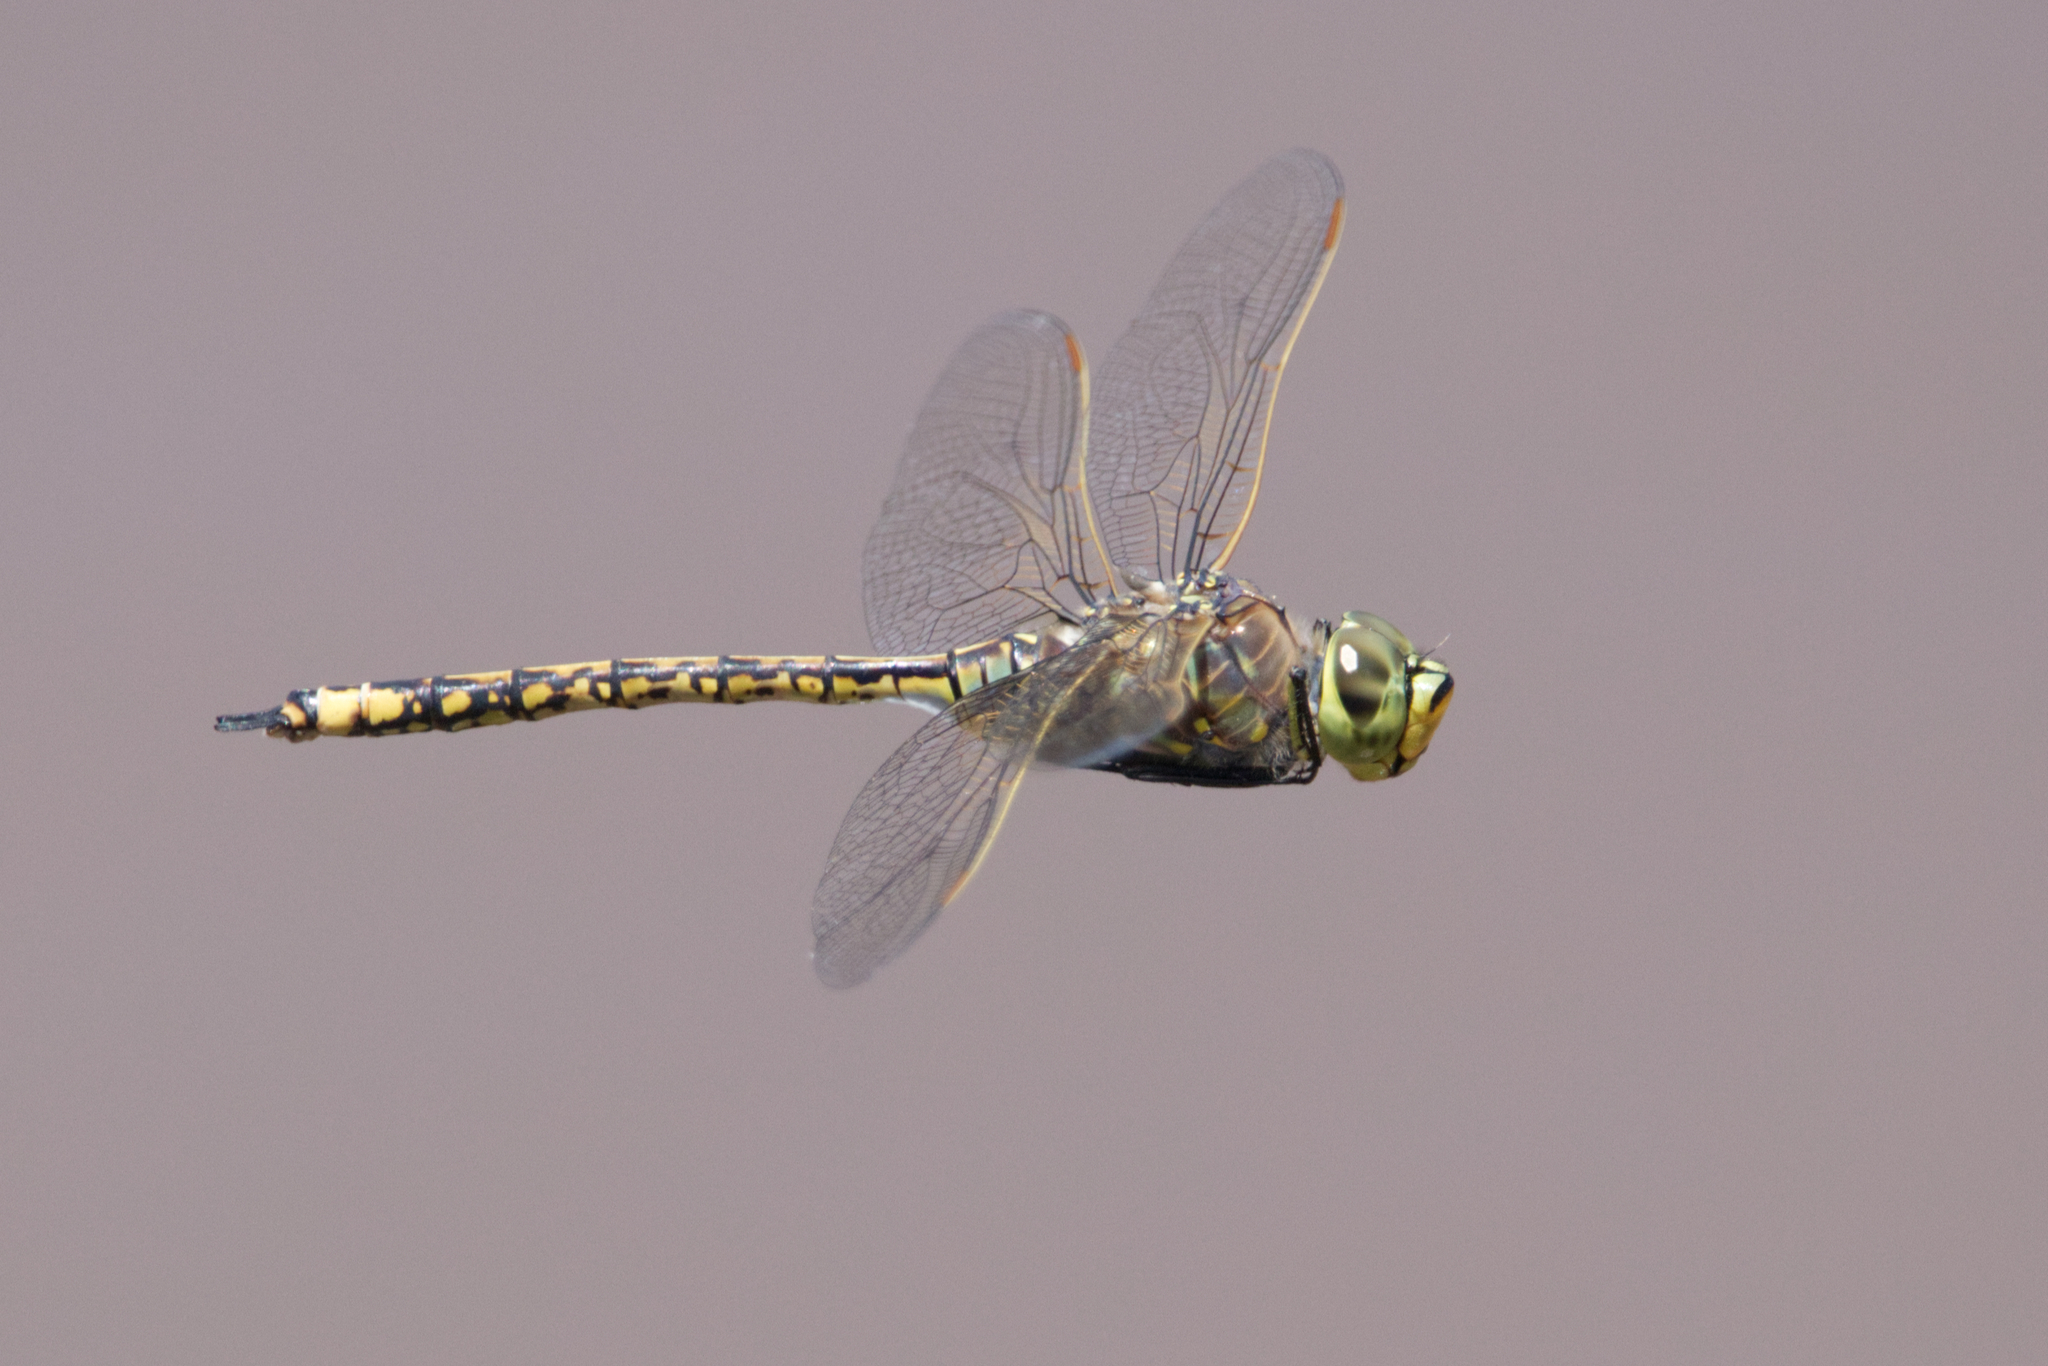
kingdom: Animalia
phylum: Arthropoda
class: Insecta
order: Odonata
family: Aeshnidae
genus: Anax
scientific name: Anax papuensis
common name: Australian emperor
